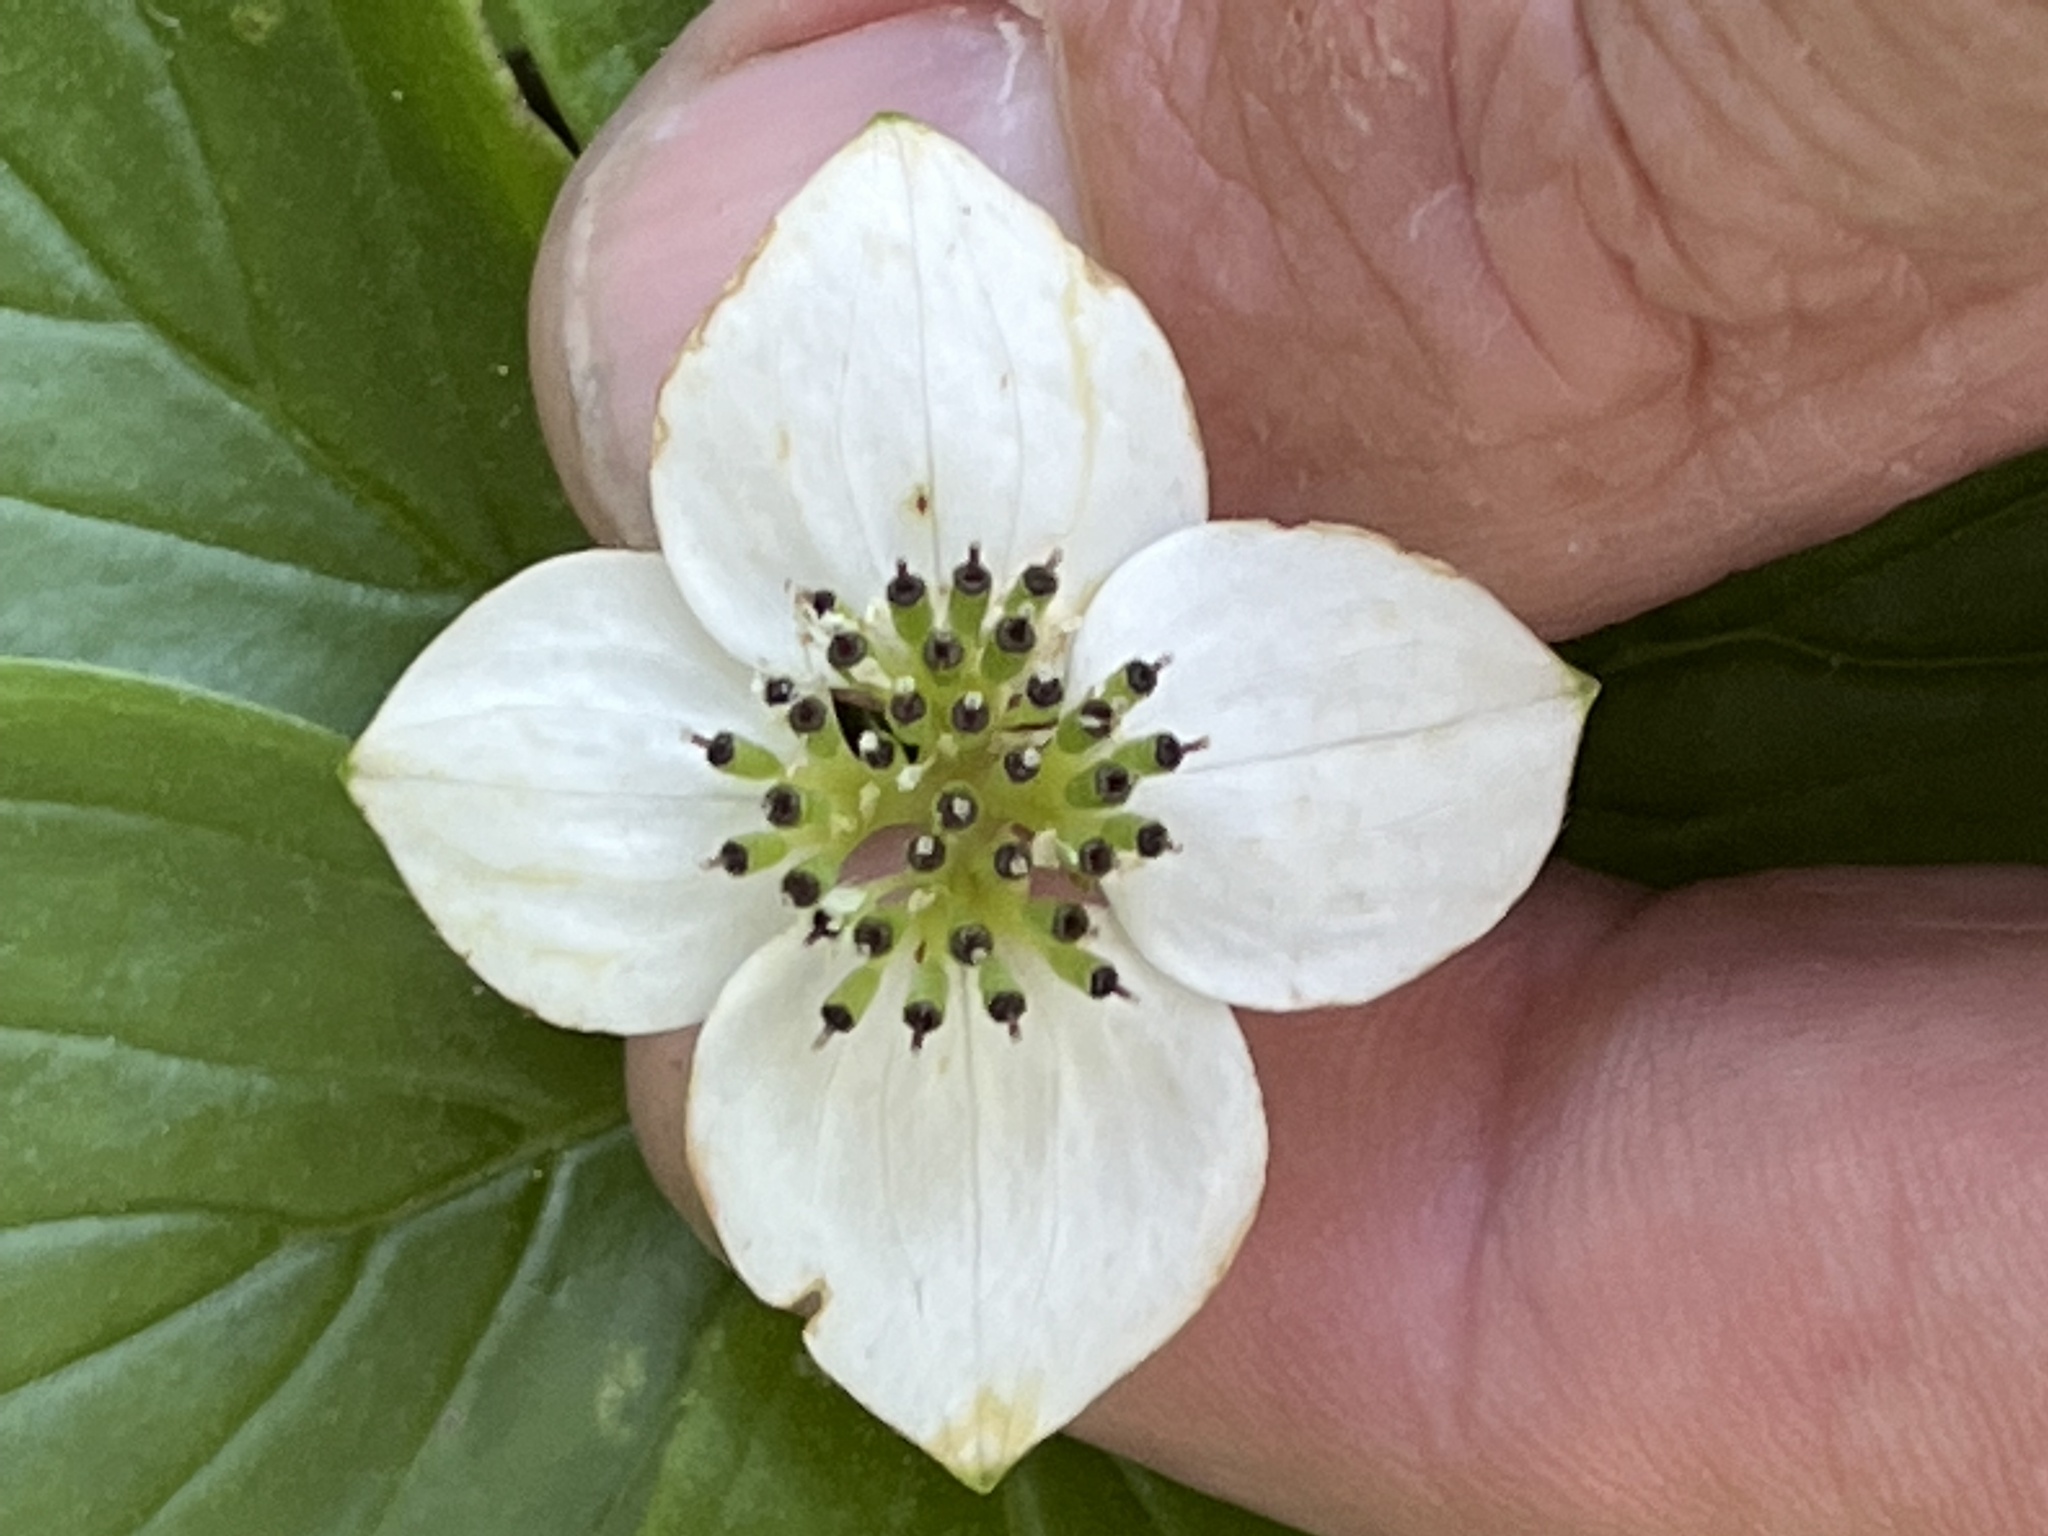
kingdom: Plantae
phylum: Tracheophyta
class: Magnoliopsida
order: Cornales
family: Cornaceae
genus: Cornus
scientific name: Cornus canadensis
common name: Creeping dogwood
